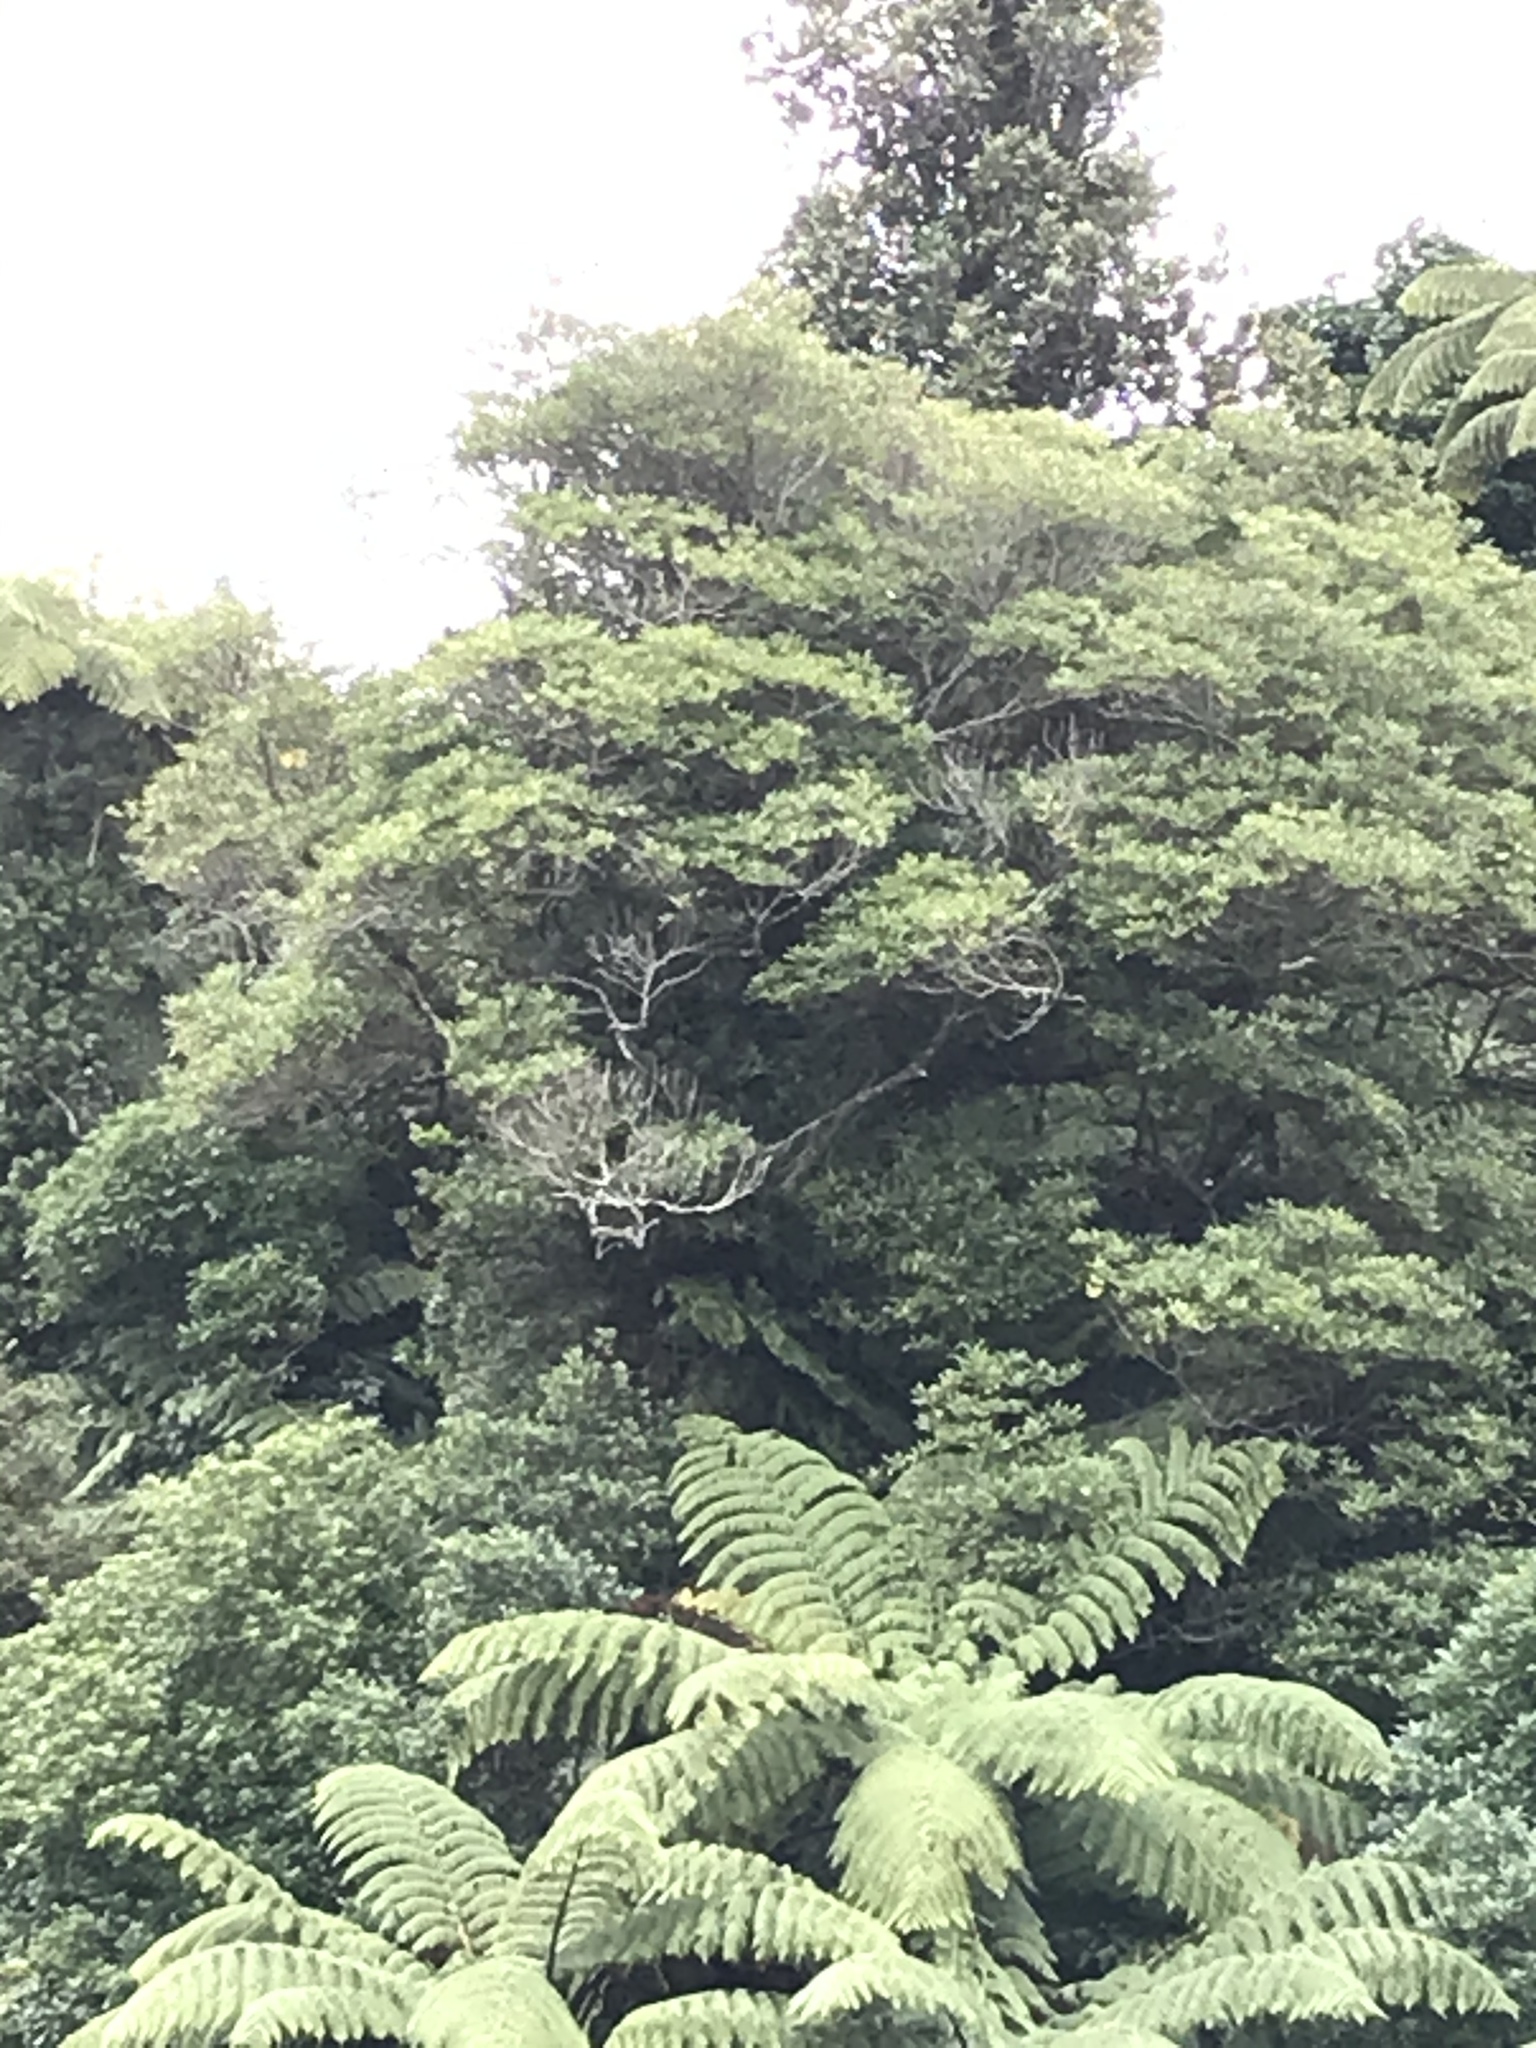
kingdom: Animalia
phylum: Chordata
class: Aves
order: Columbiformes
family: Columbidae
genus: Hemiphaga
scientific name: Hemiphaga novaeseelandiae
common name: New zealand pigeon
